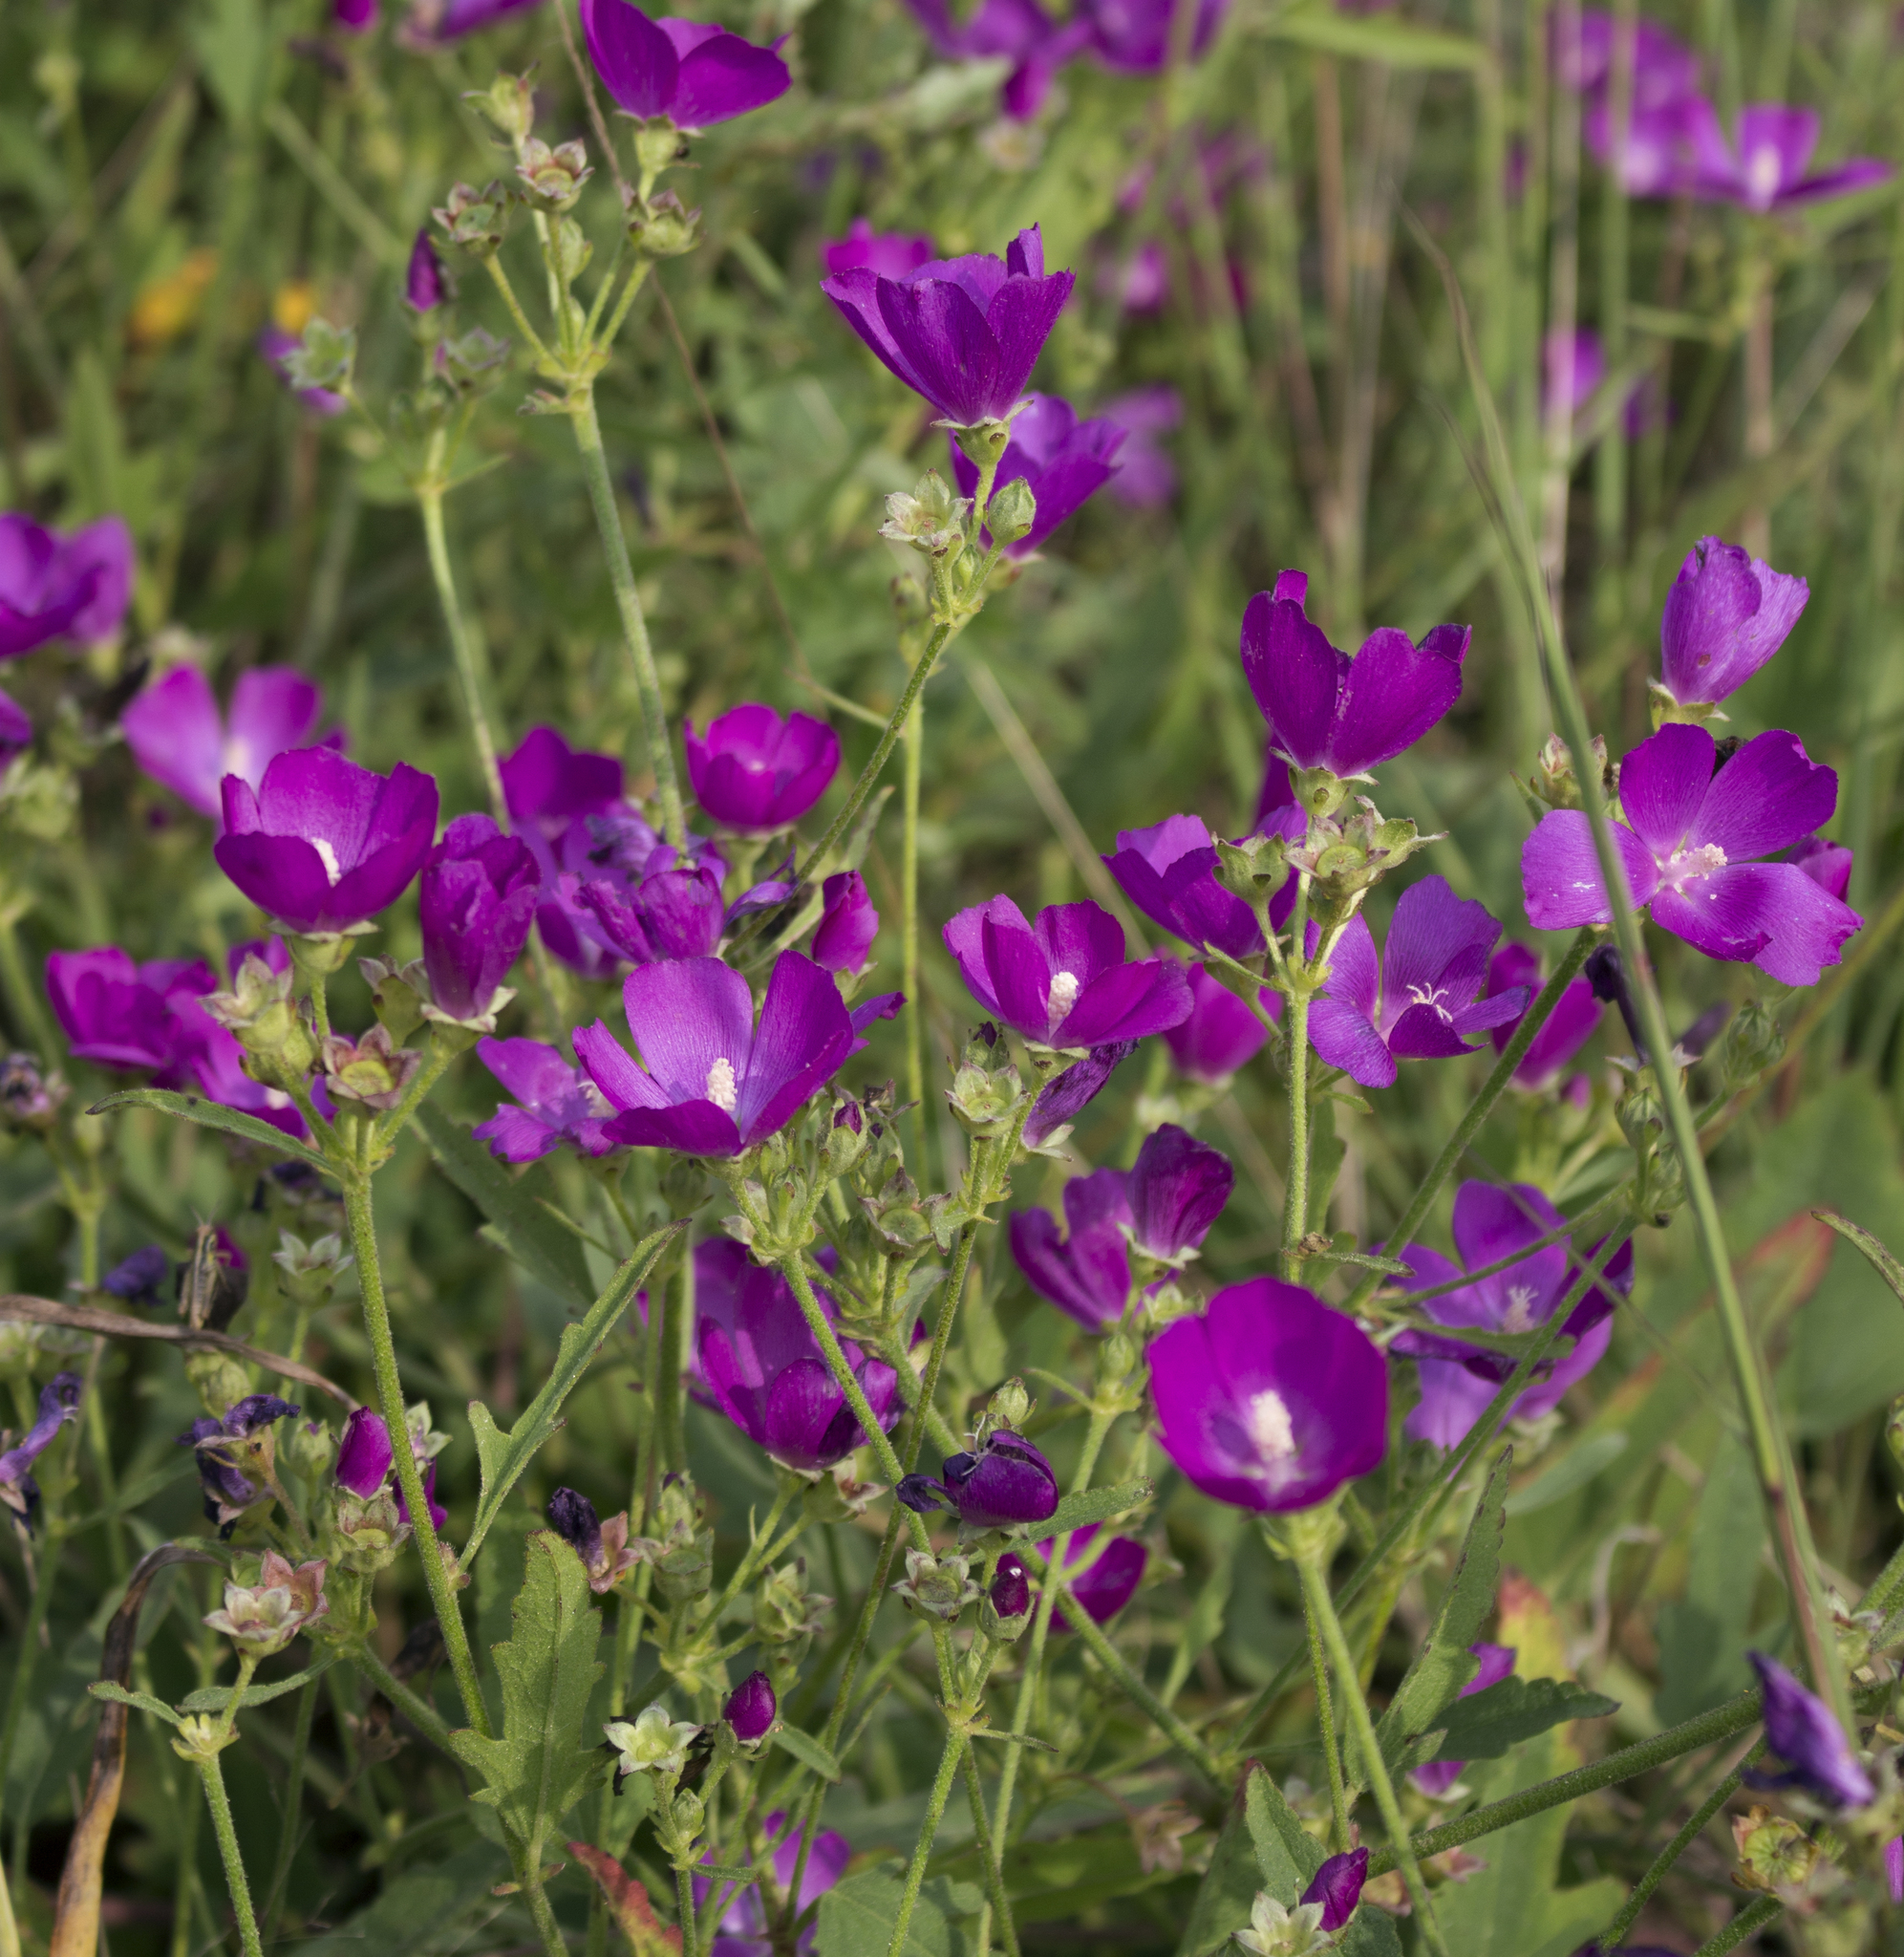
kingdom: Plantae
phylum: Tracheophyta
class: Magnoliopsida
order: Malvales
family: Malvaceae
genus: Callirhoe
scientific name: Callirhoe triangulata
